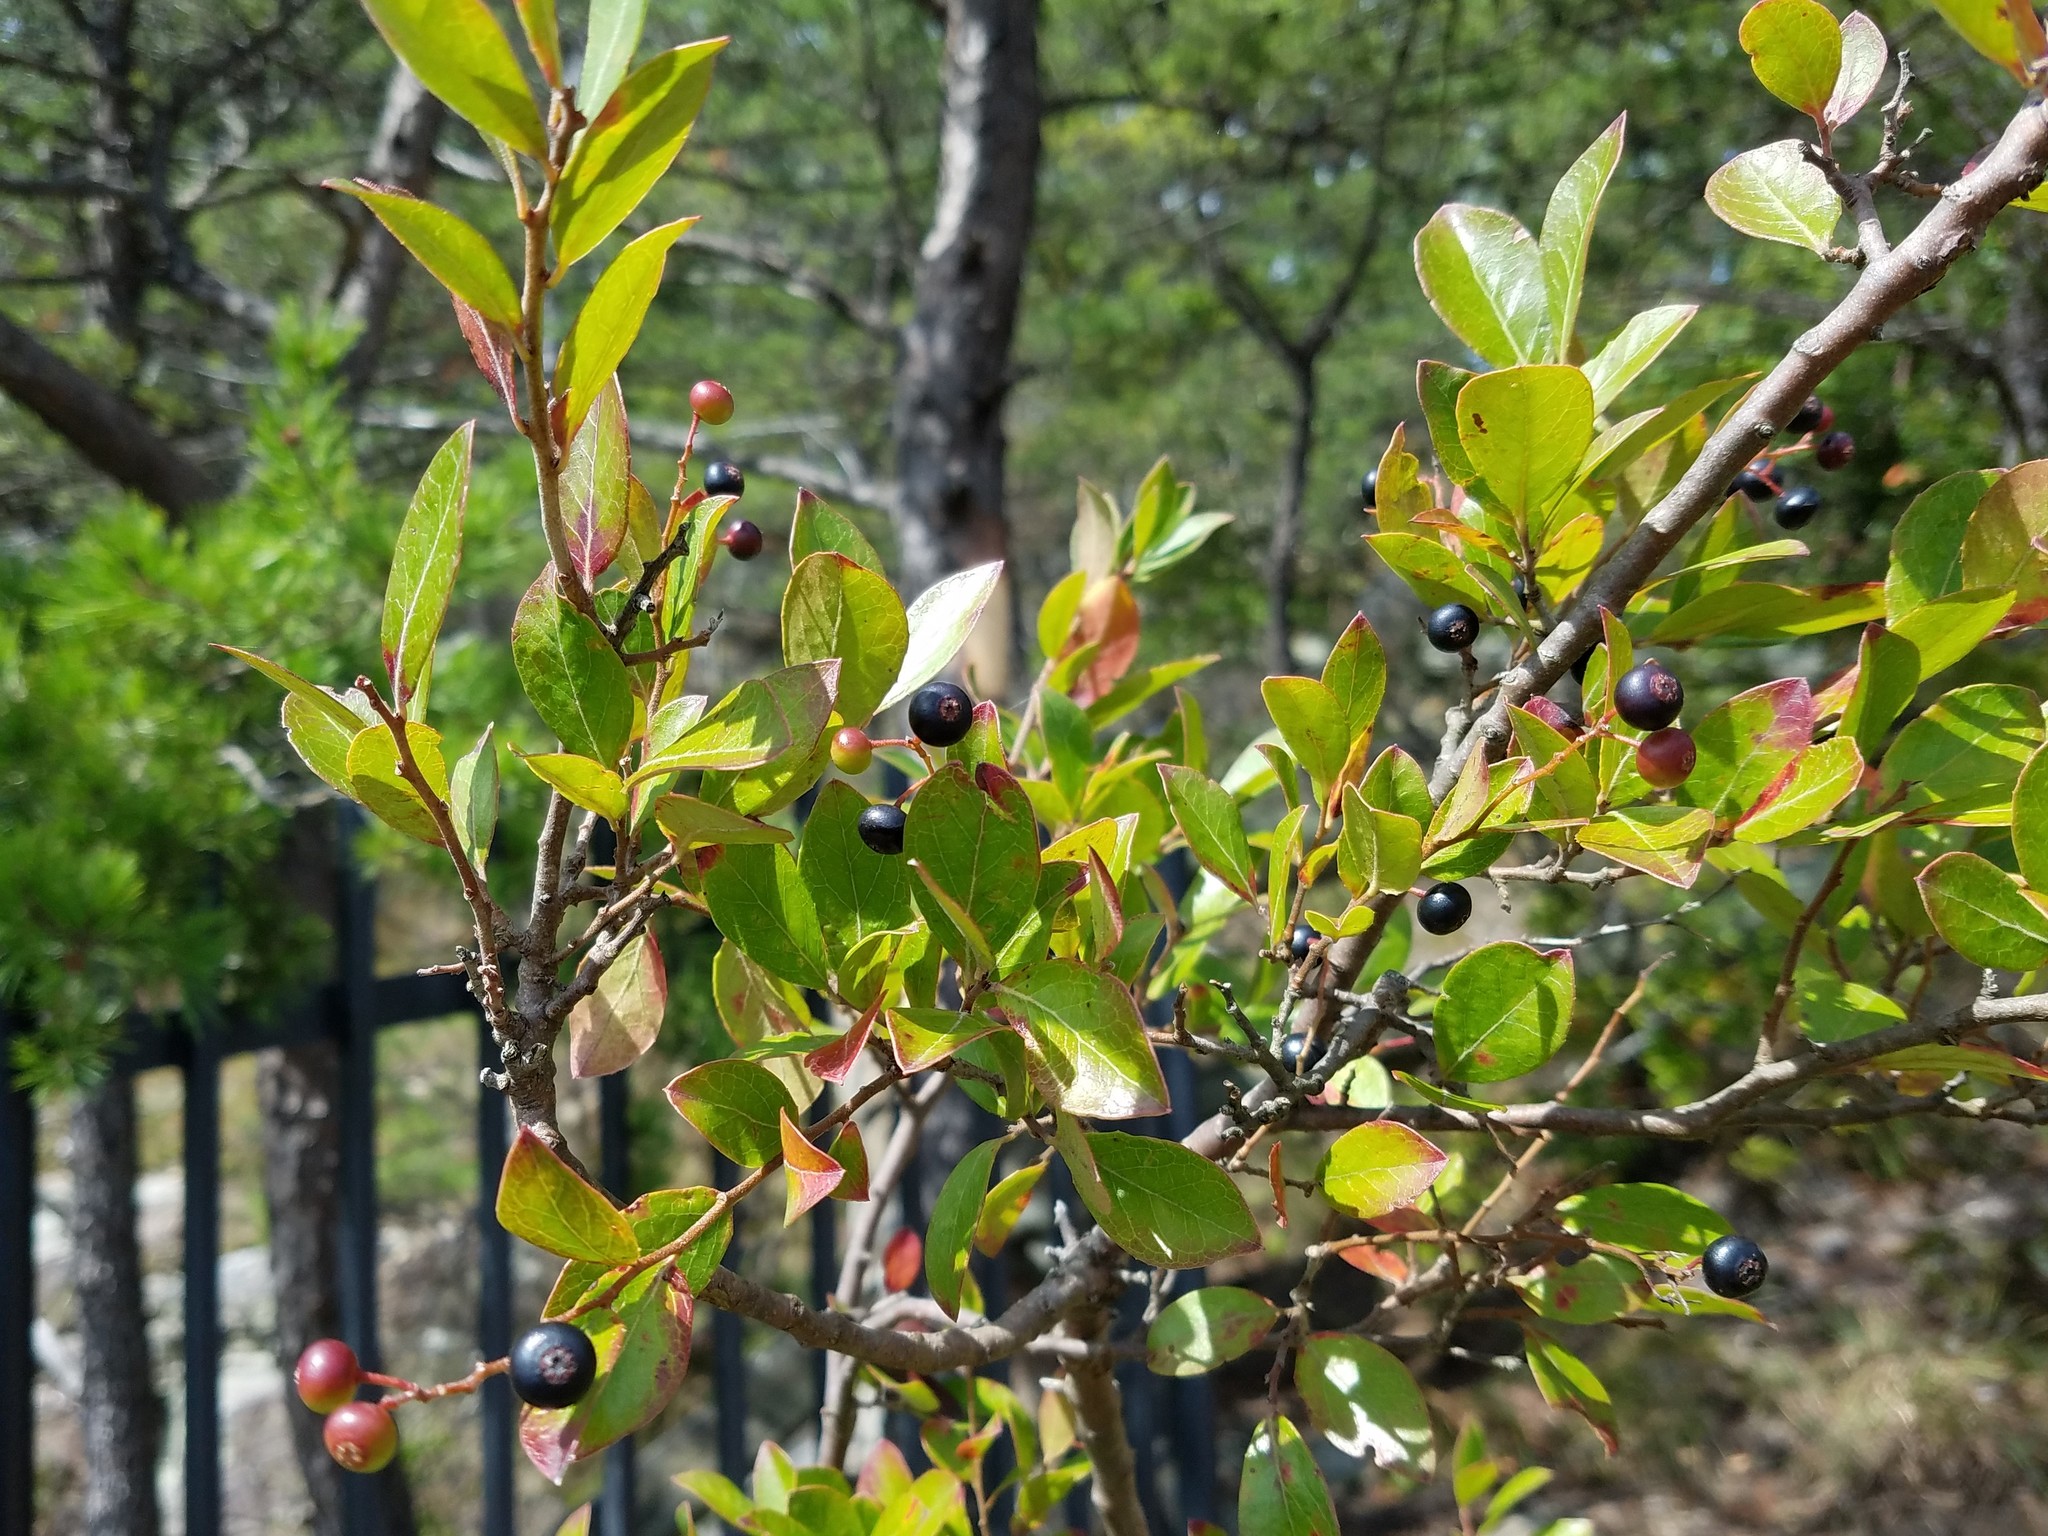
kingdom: Plantae
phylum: Tracheophyta
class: Magnoliopsida
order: Ericales
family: Ericaceae
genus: Vaccinium
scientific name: Vaccinium arboreum
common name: Farkleberry
